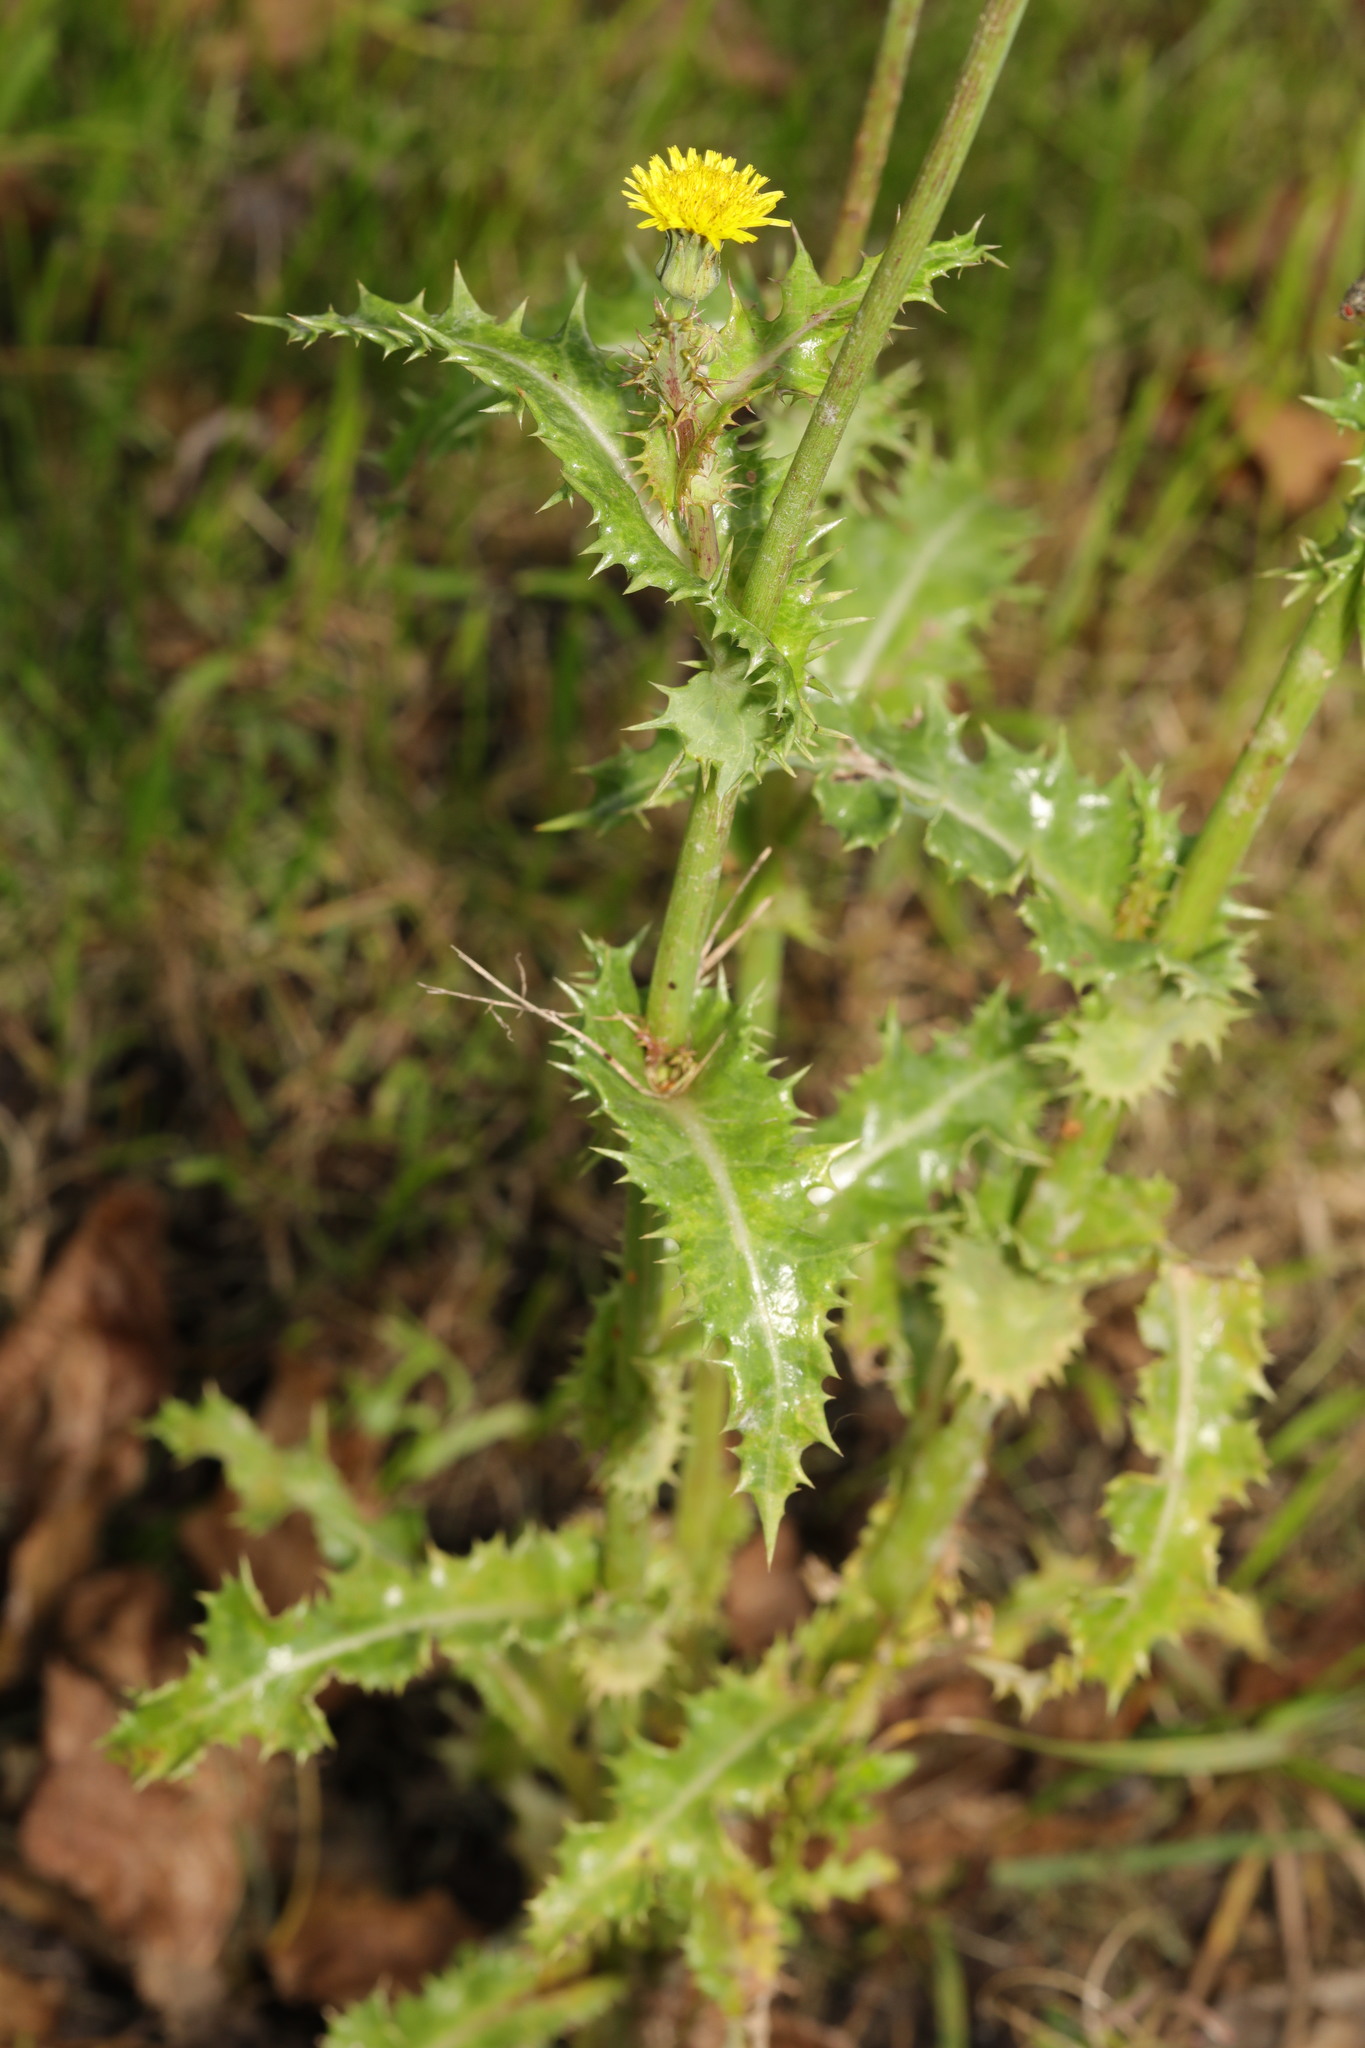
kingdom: Plantae
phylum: Tracheophyta
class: Magnoliopsida
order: Asterales
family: Asteraceae
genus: Sonchus
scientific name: Sonchus asper
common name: Prickly sow-thistle
